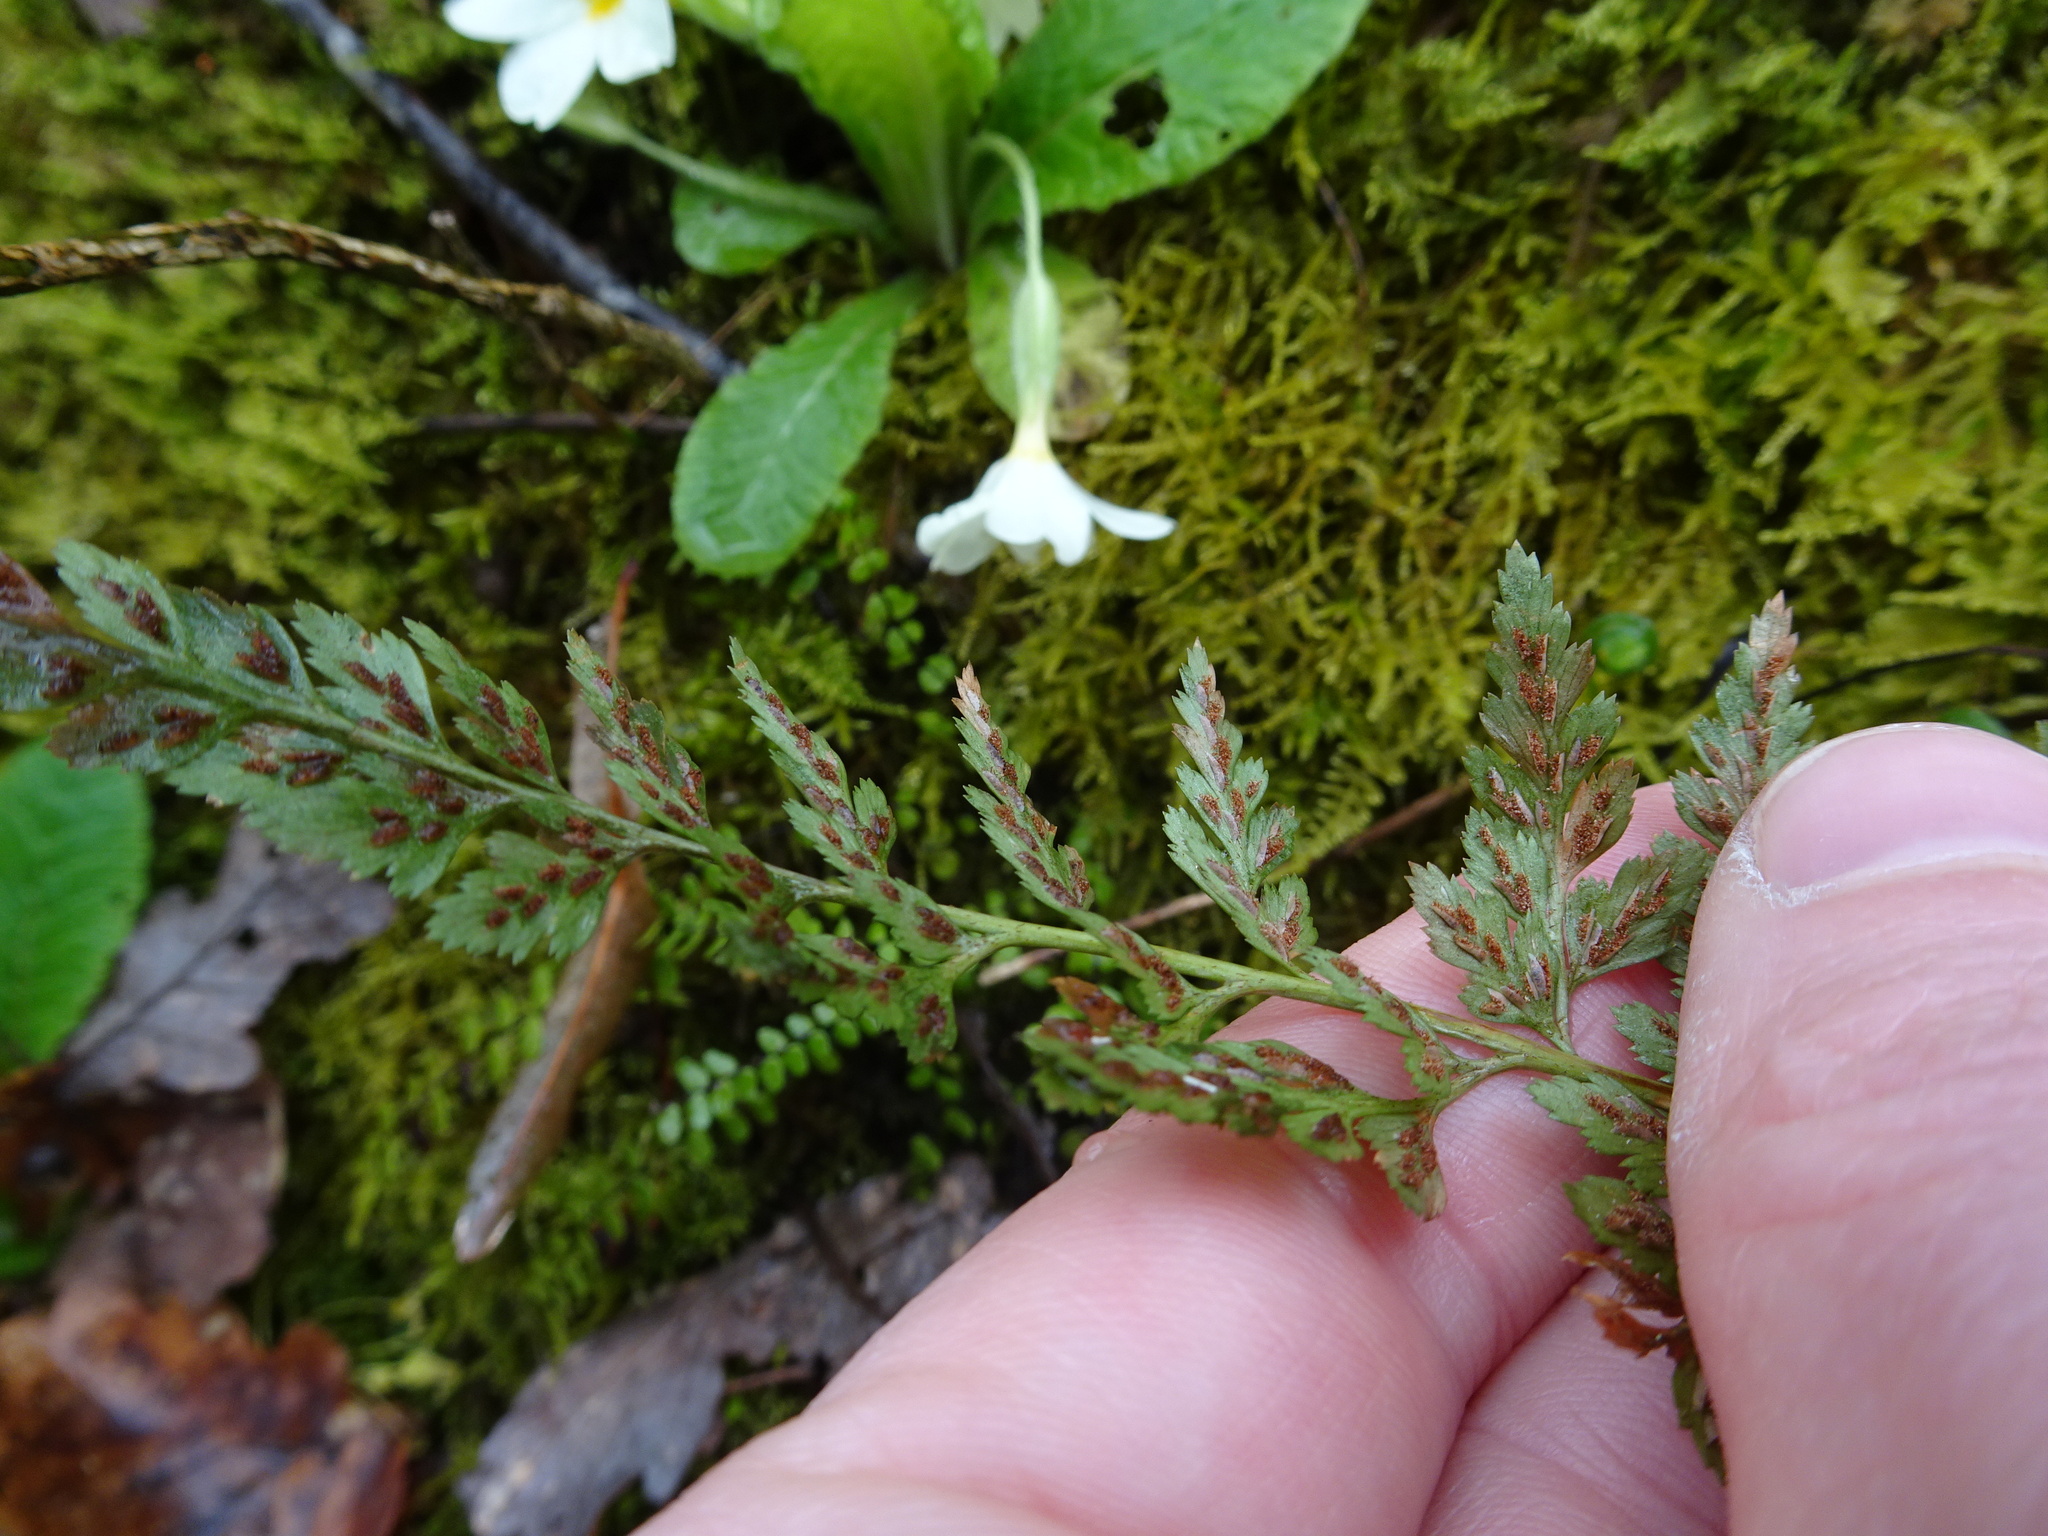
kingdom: Plantae
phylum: Tracheophyta
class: Polypodiopsida
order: Polypodiales
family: Aspleniaceae
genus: Asplenium
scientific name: Asplenium adiantum-nigrum
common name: Black spleenwort
